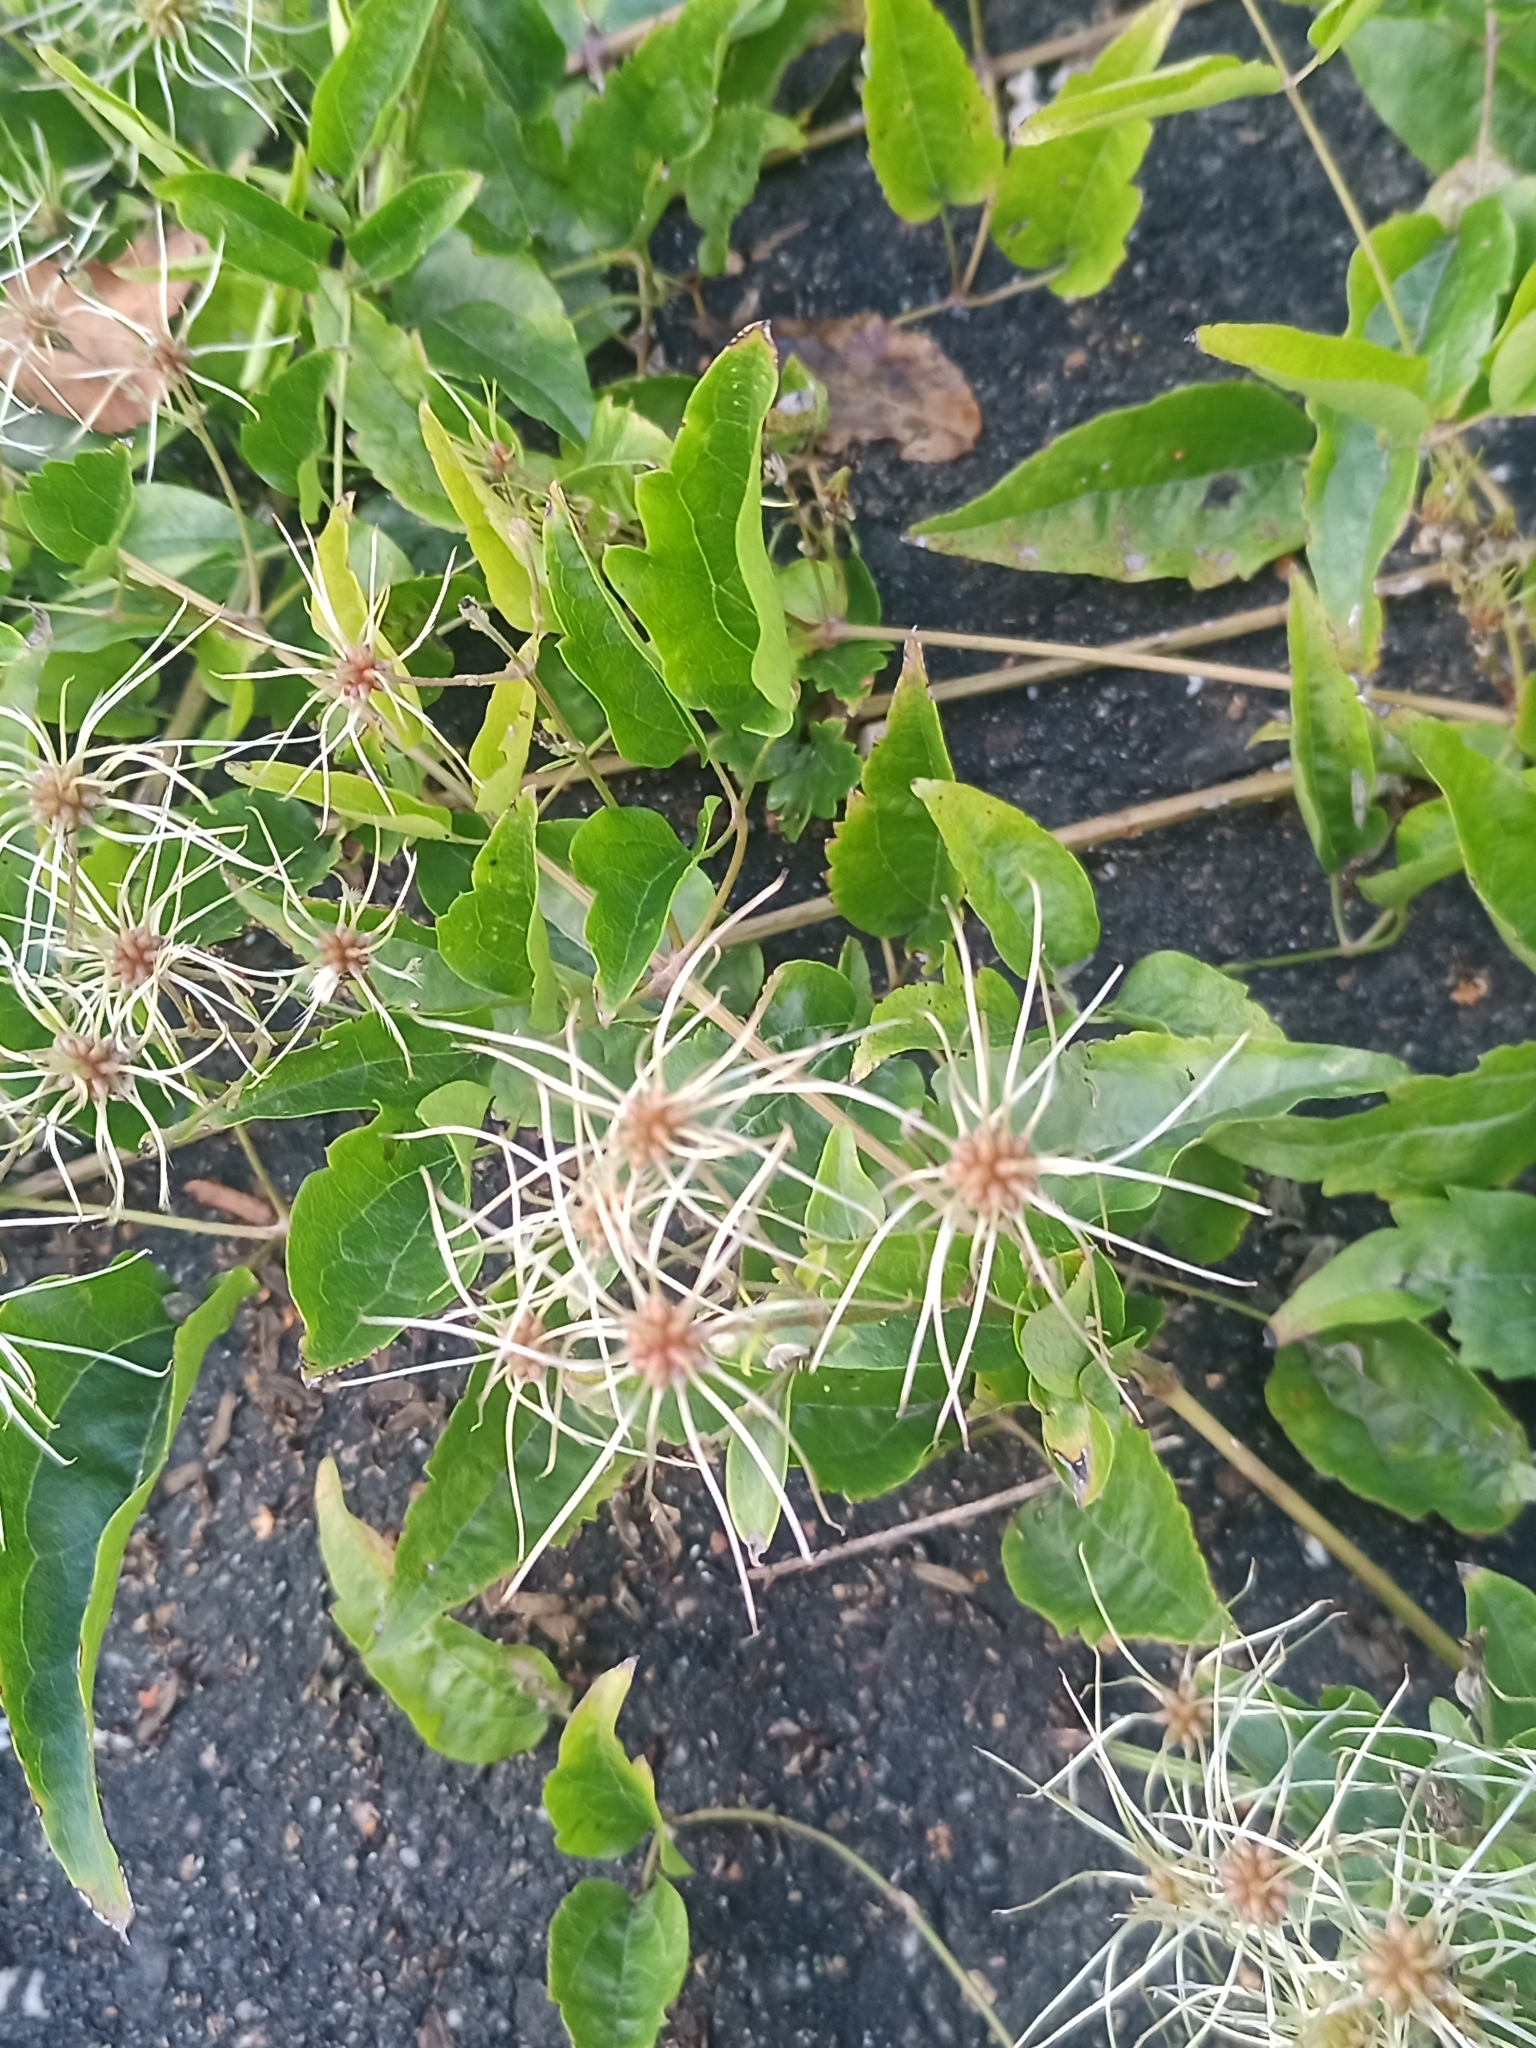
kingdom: Plantae
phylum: Tracheophyta
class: Magnoliopsida
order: Ranunculales
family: Ranunculaceae
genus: Clematis
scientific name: Clematis vitalba
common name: Evergreen clematis
